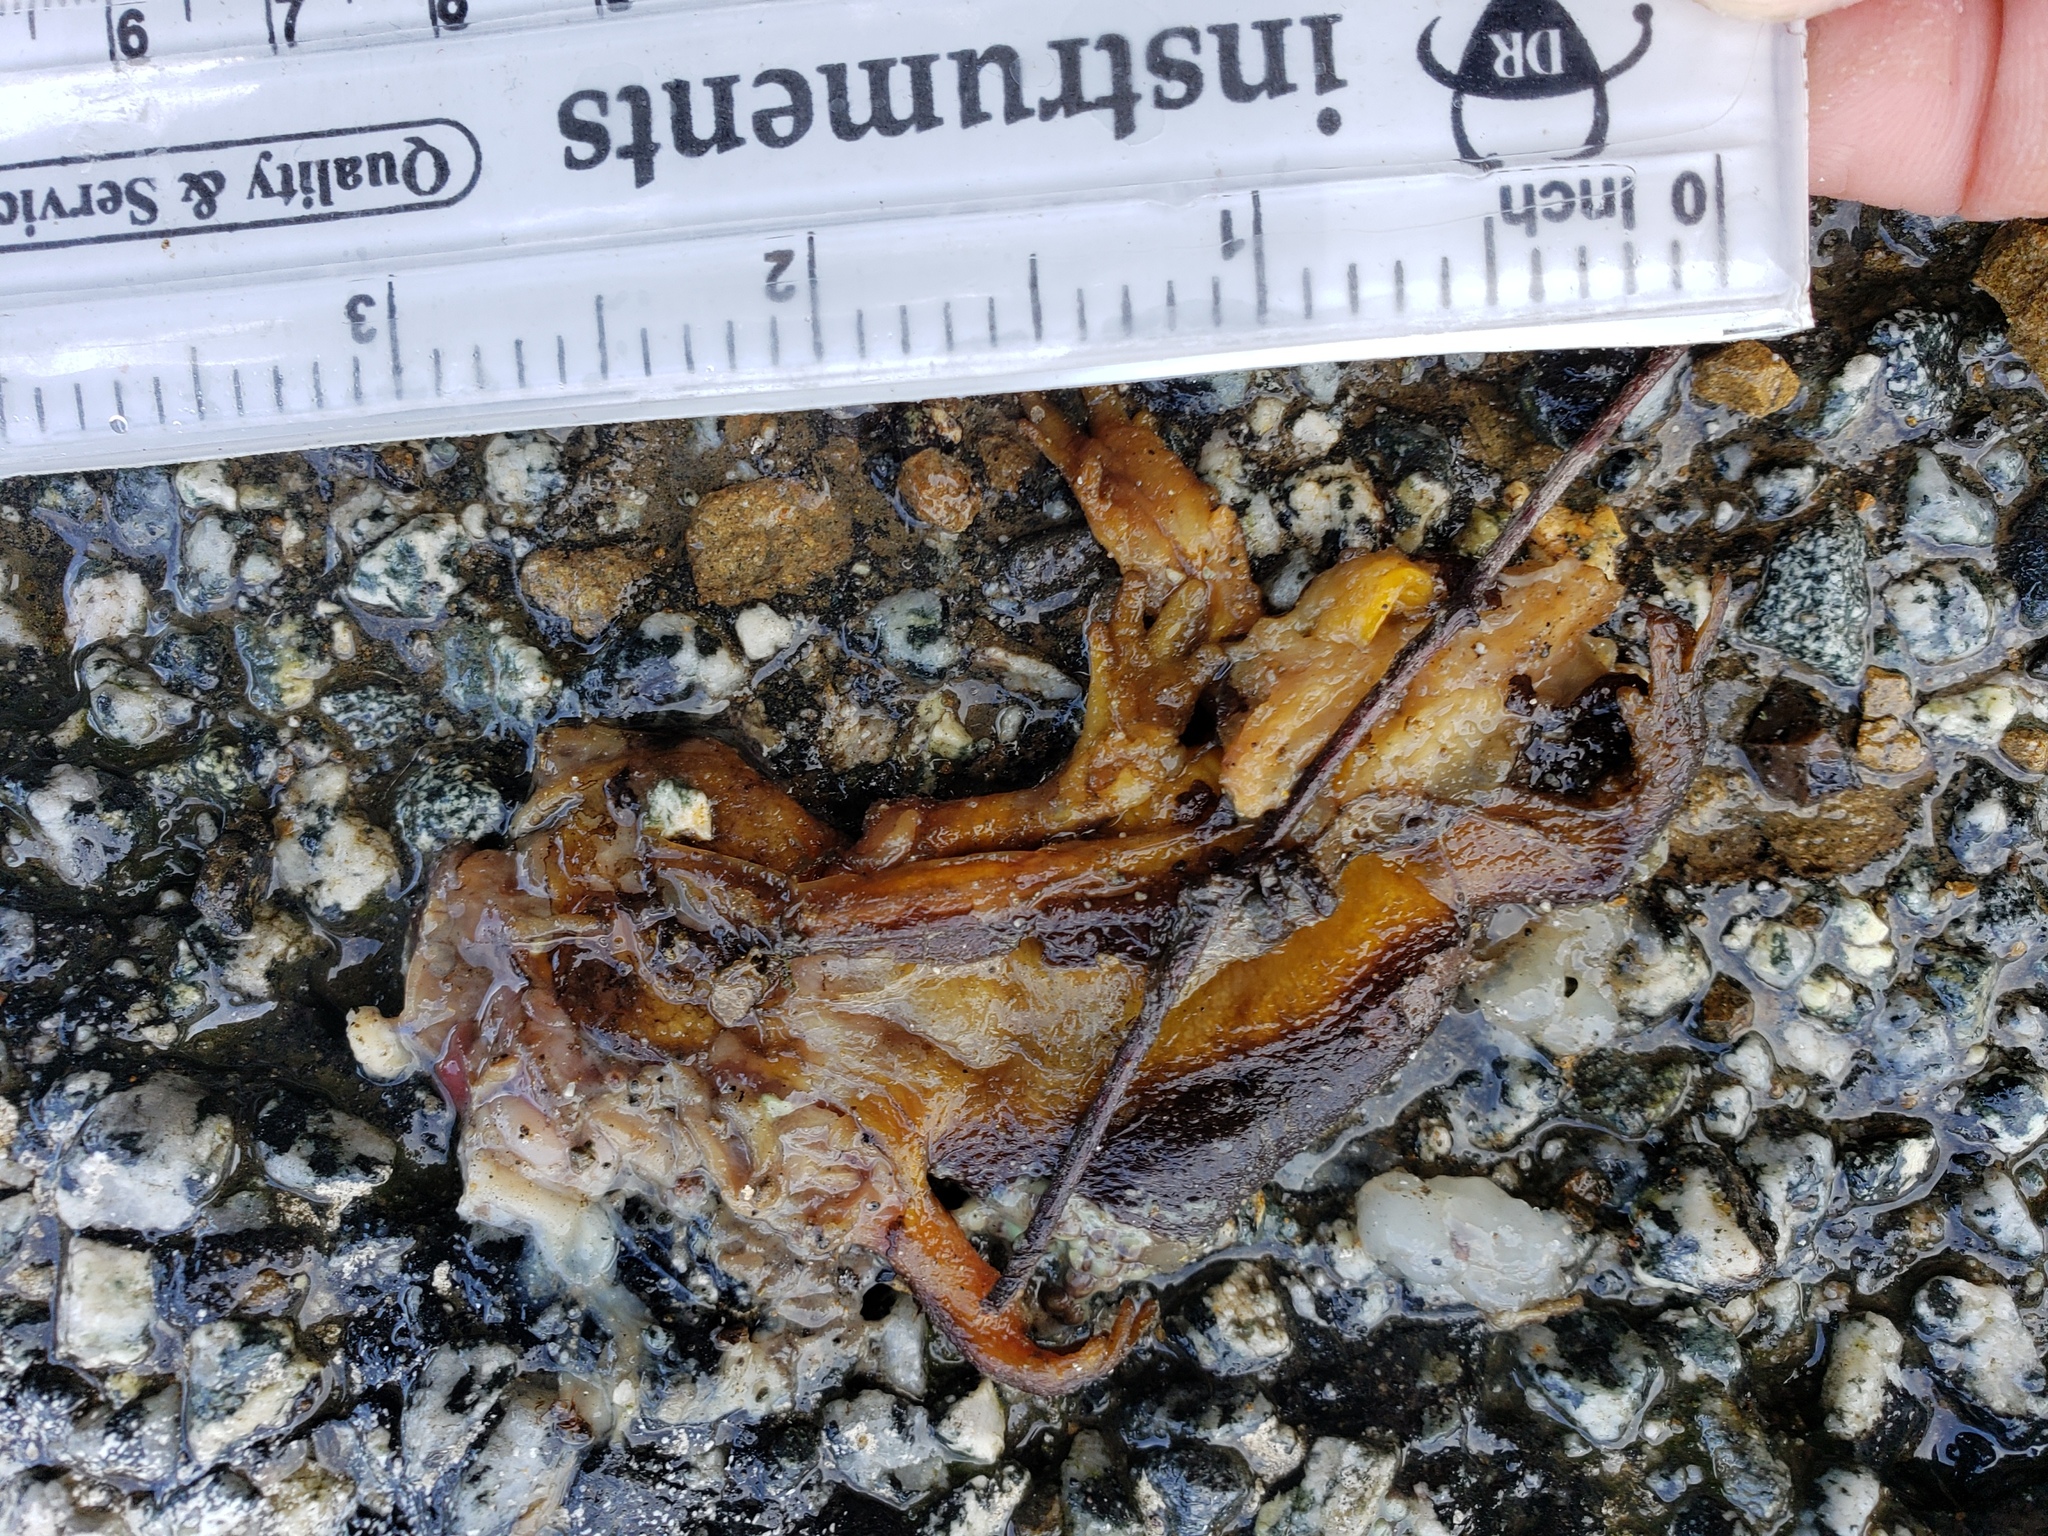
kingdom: Animalia
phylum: Chordata
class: Amphibia
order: Caudata
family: Salamandridae
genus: Taricha
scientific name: Taricha
